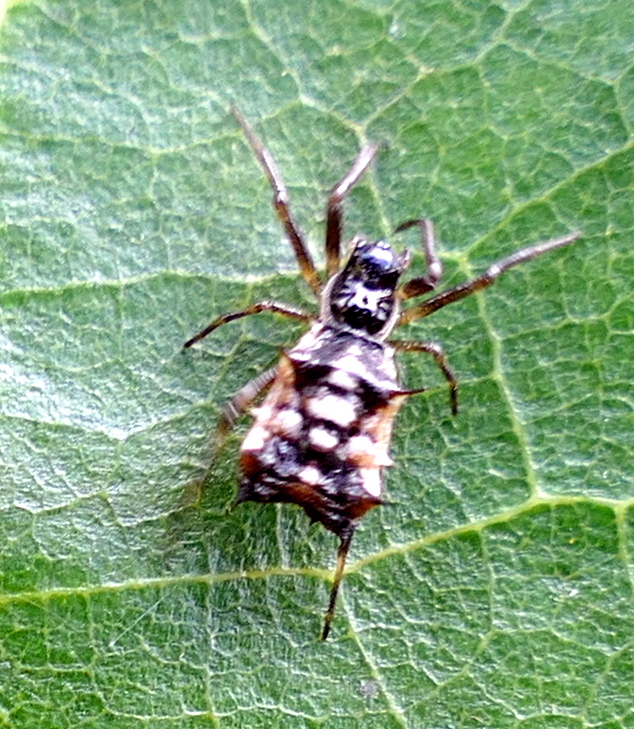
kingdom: Animalia
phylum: Arthropoda
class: Arachnida
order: Araneae
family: Araneidae
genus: Micrathena
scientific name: Micrathena picta
